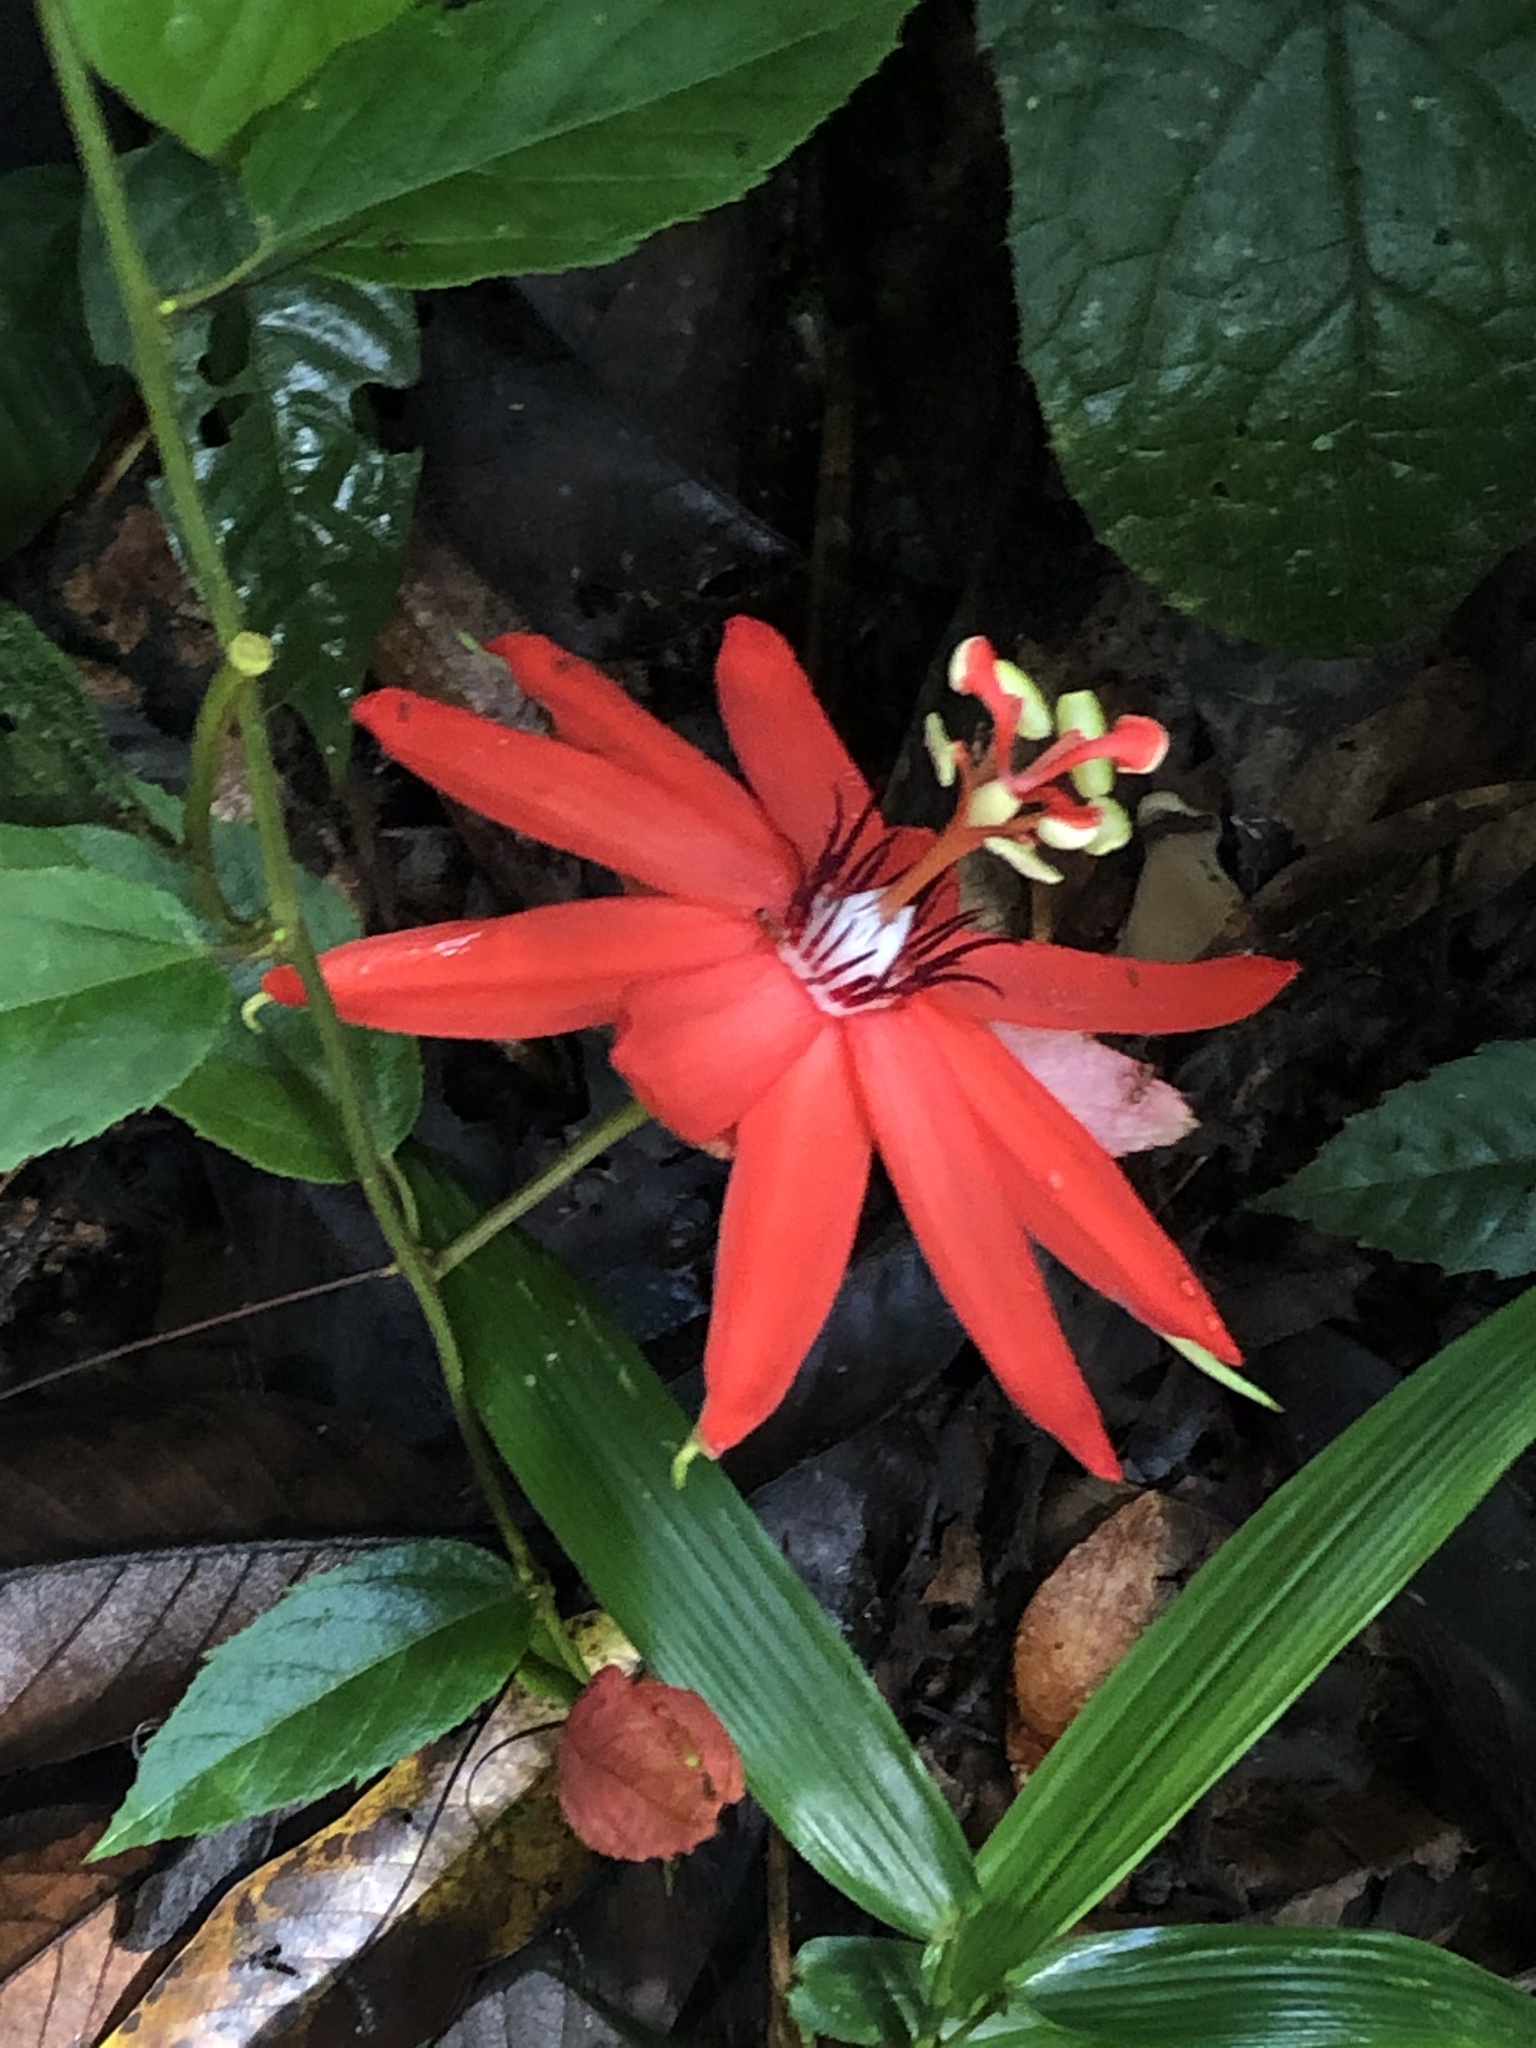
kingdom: Plantae
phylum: Tracheophyta
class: Magnoliopsida
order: Malpighiales
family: Passifloraceae
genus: Passiflora
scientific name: Passiflora miniata
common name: Red granadilla
